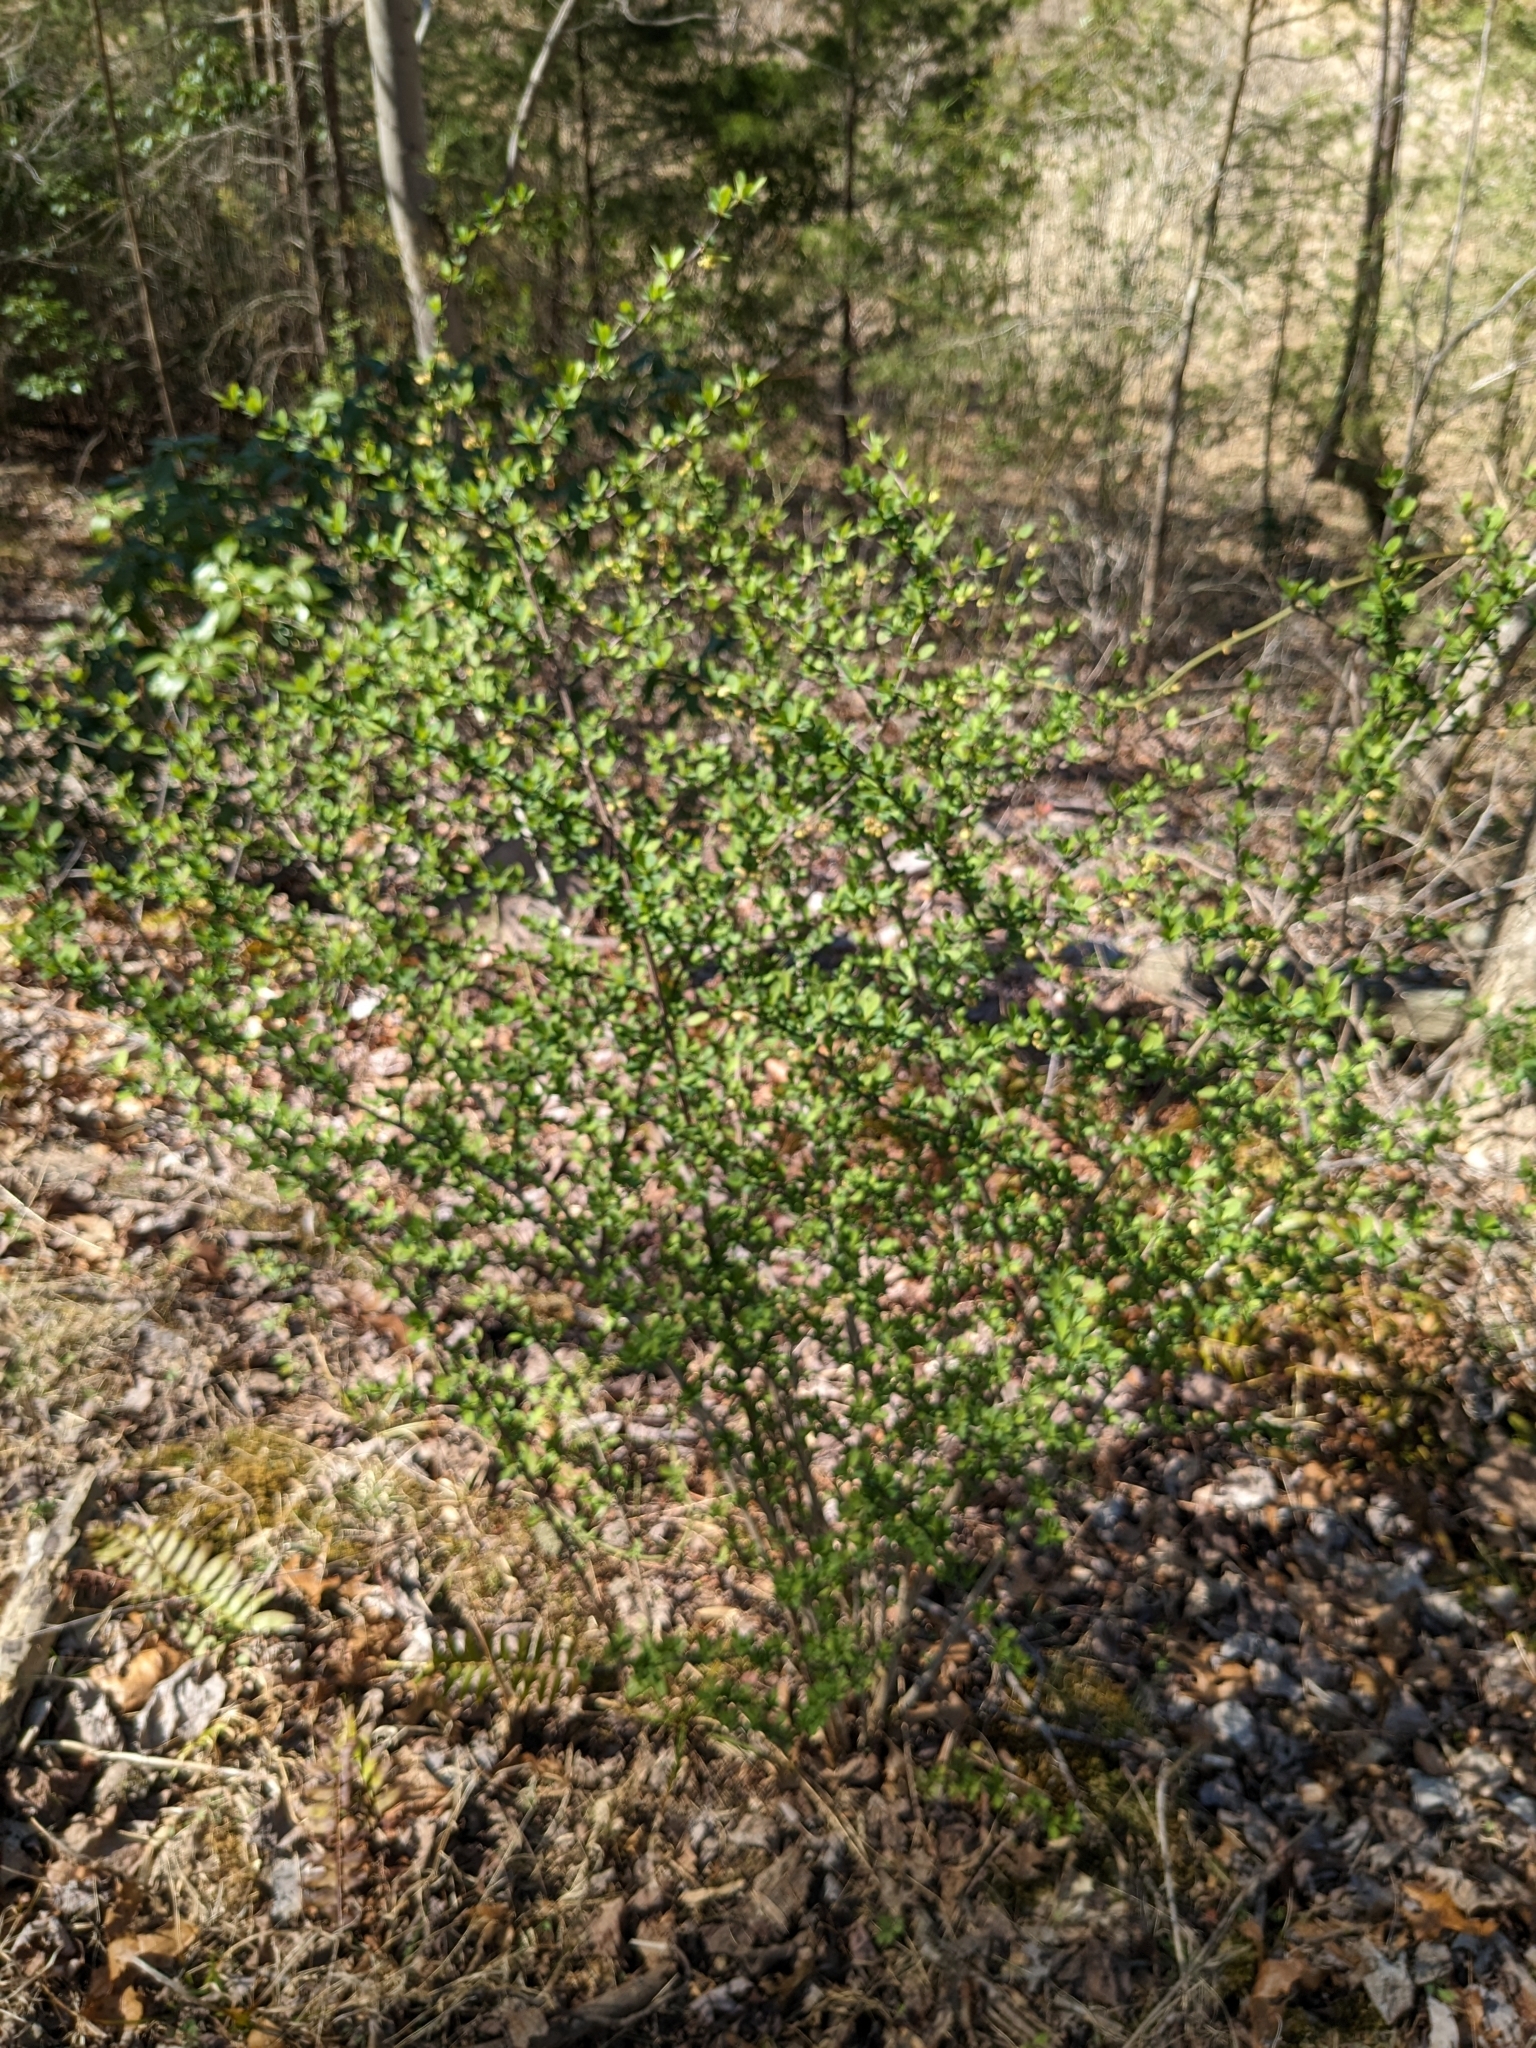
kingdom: Plantae
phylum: Tracheophyta
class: Magnoliopsida
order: Ranunculales
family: Berberidaceae
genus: Berberis
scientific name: Berberis thunbergii
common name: Japanese barberry
